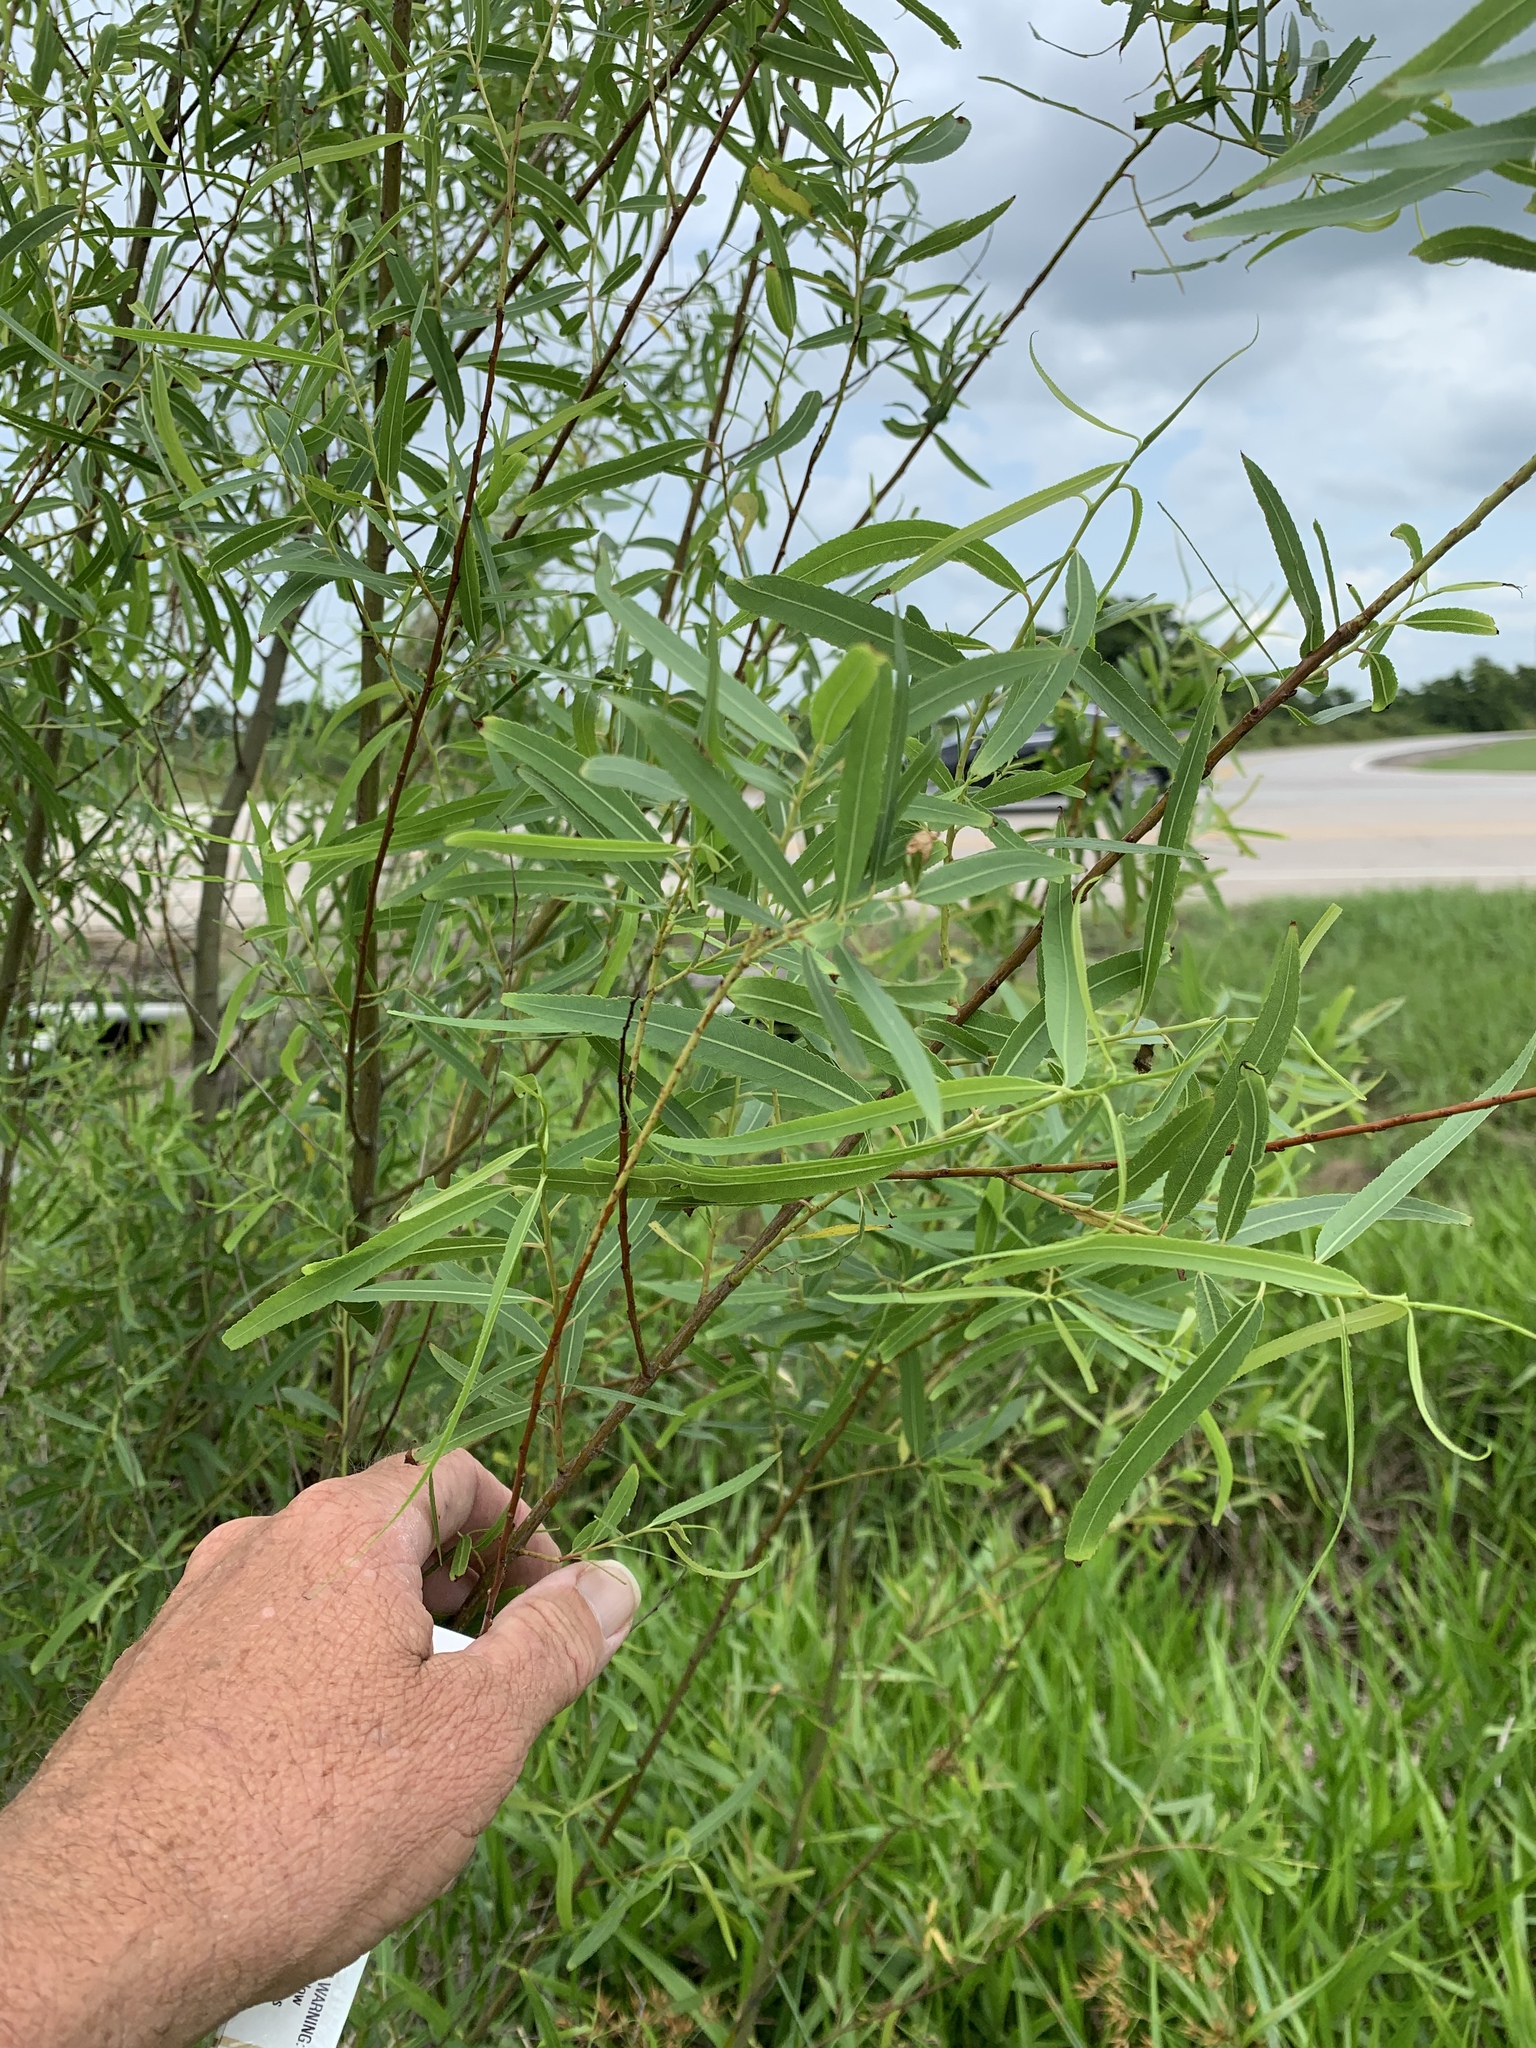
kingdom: Plantae
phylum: Tracheophyta
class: Magnoliopsida
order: Malpighiales
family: Salicaceae
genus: Salix
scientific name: Salix nigra
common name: Black willow
